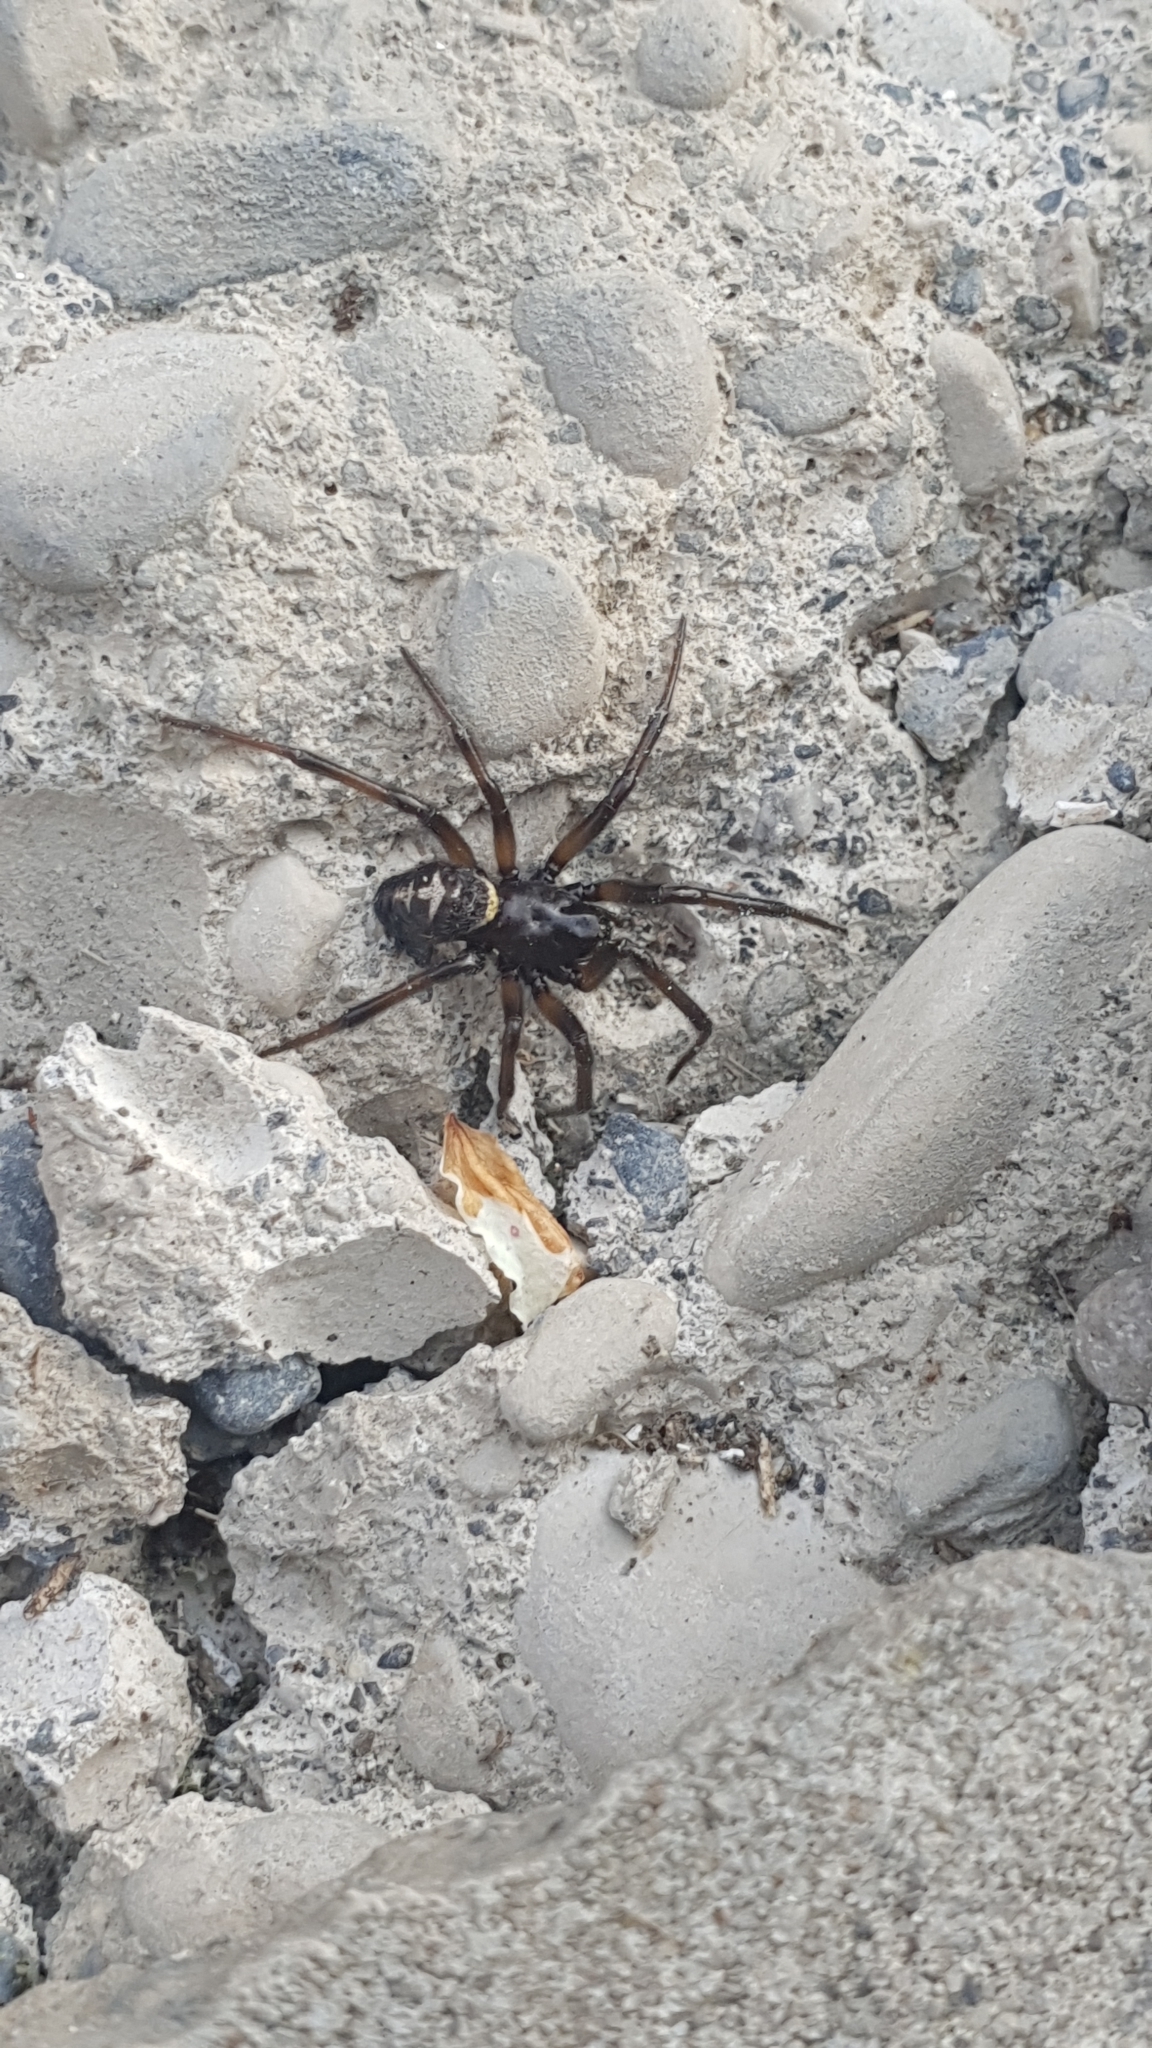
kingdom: Animalia
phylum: Arthropoda
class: Arachnida
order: Araneae
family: Theridiidae
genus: Steatoda
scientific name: Steatoda paykulliana
